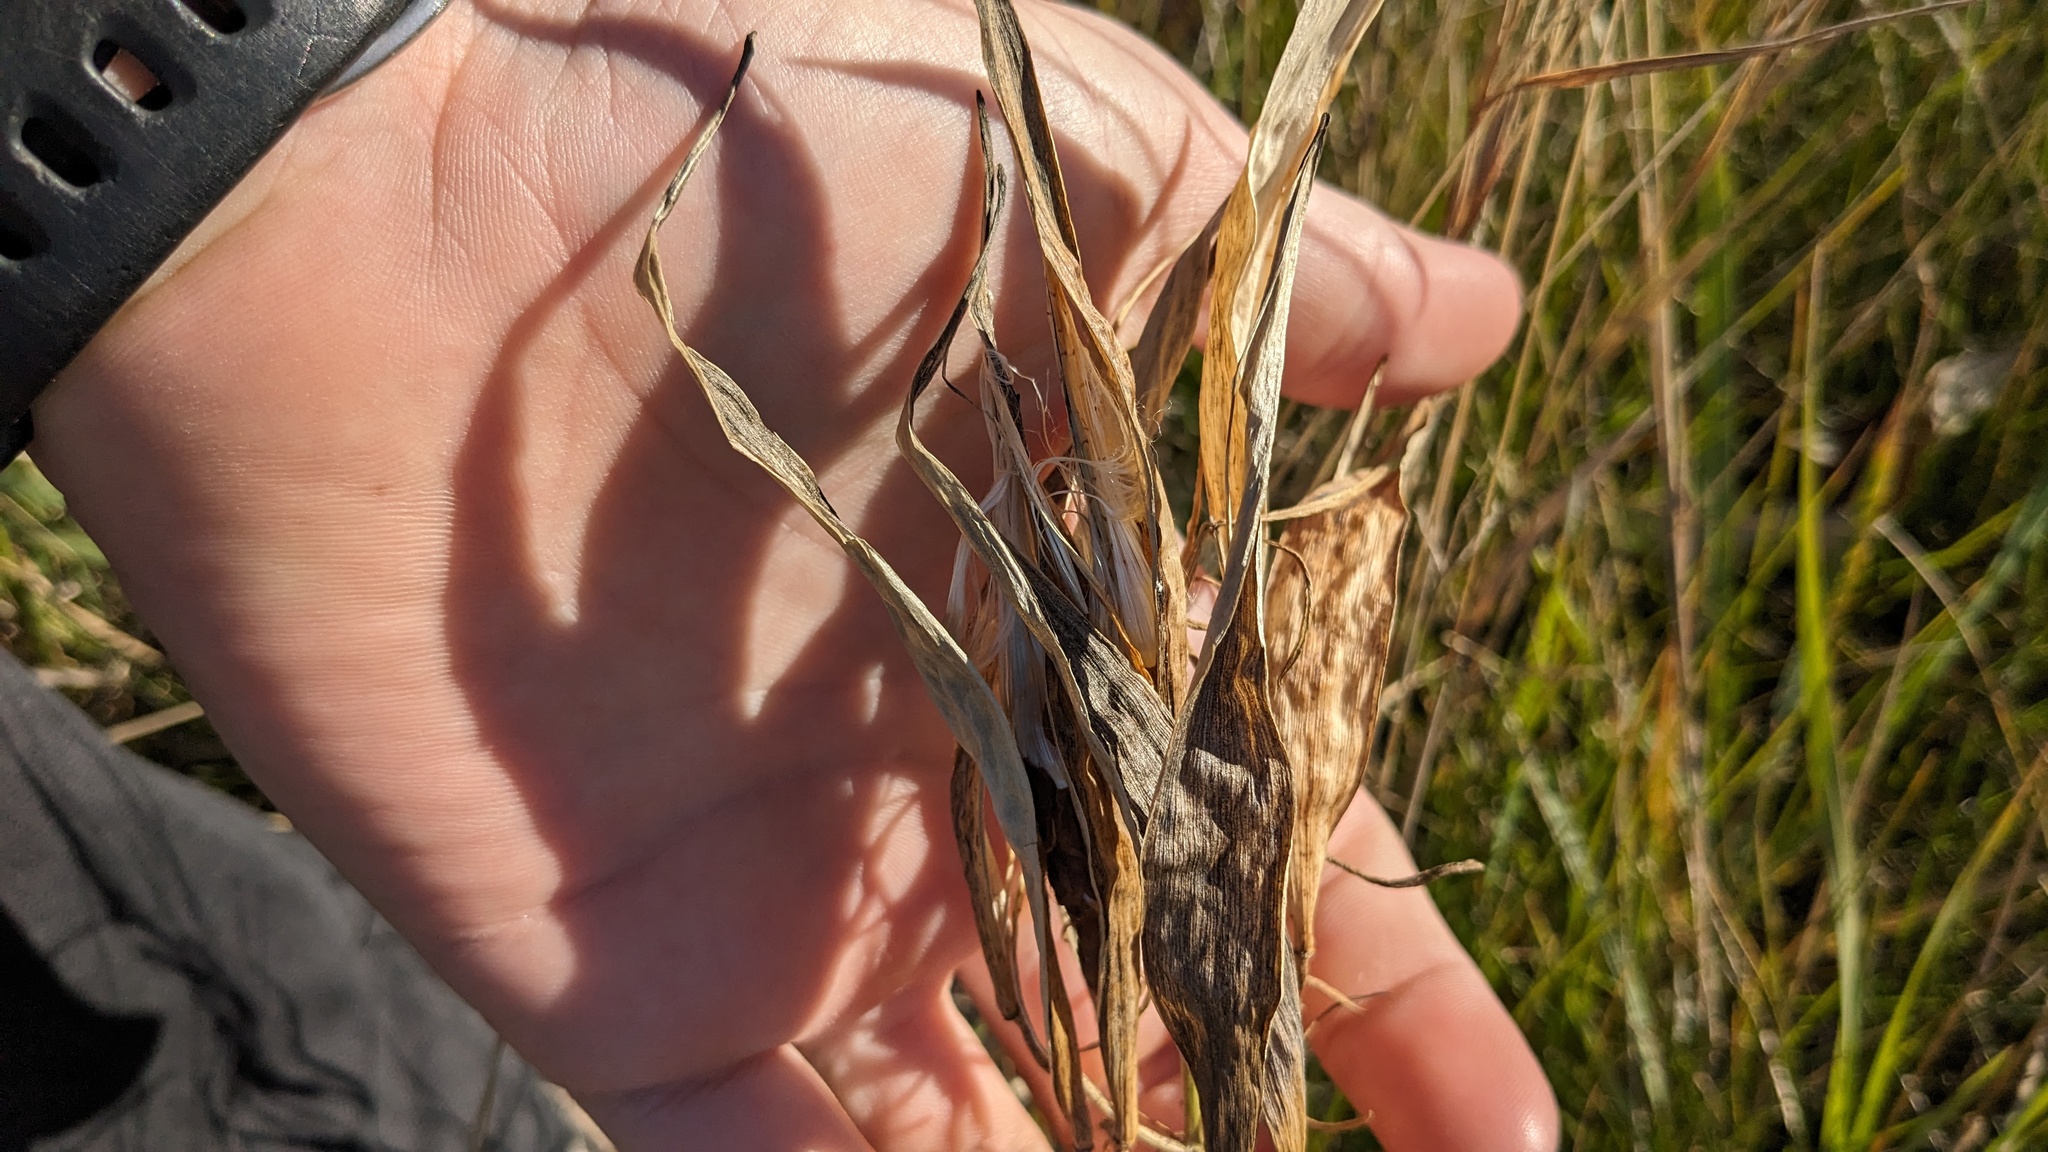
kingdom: Plantae
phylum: Tracheophyta
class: Magnoliopsida
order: Gentianales
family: Apocynaceae
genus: Asclepias
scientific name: Asclepias verticillata
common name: Eastern whorled milkweed
